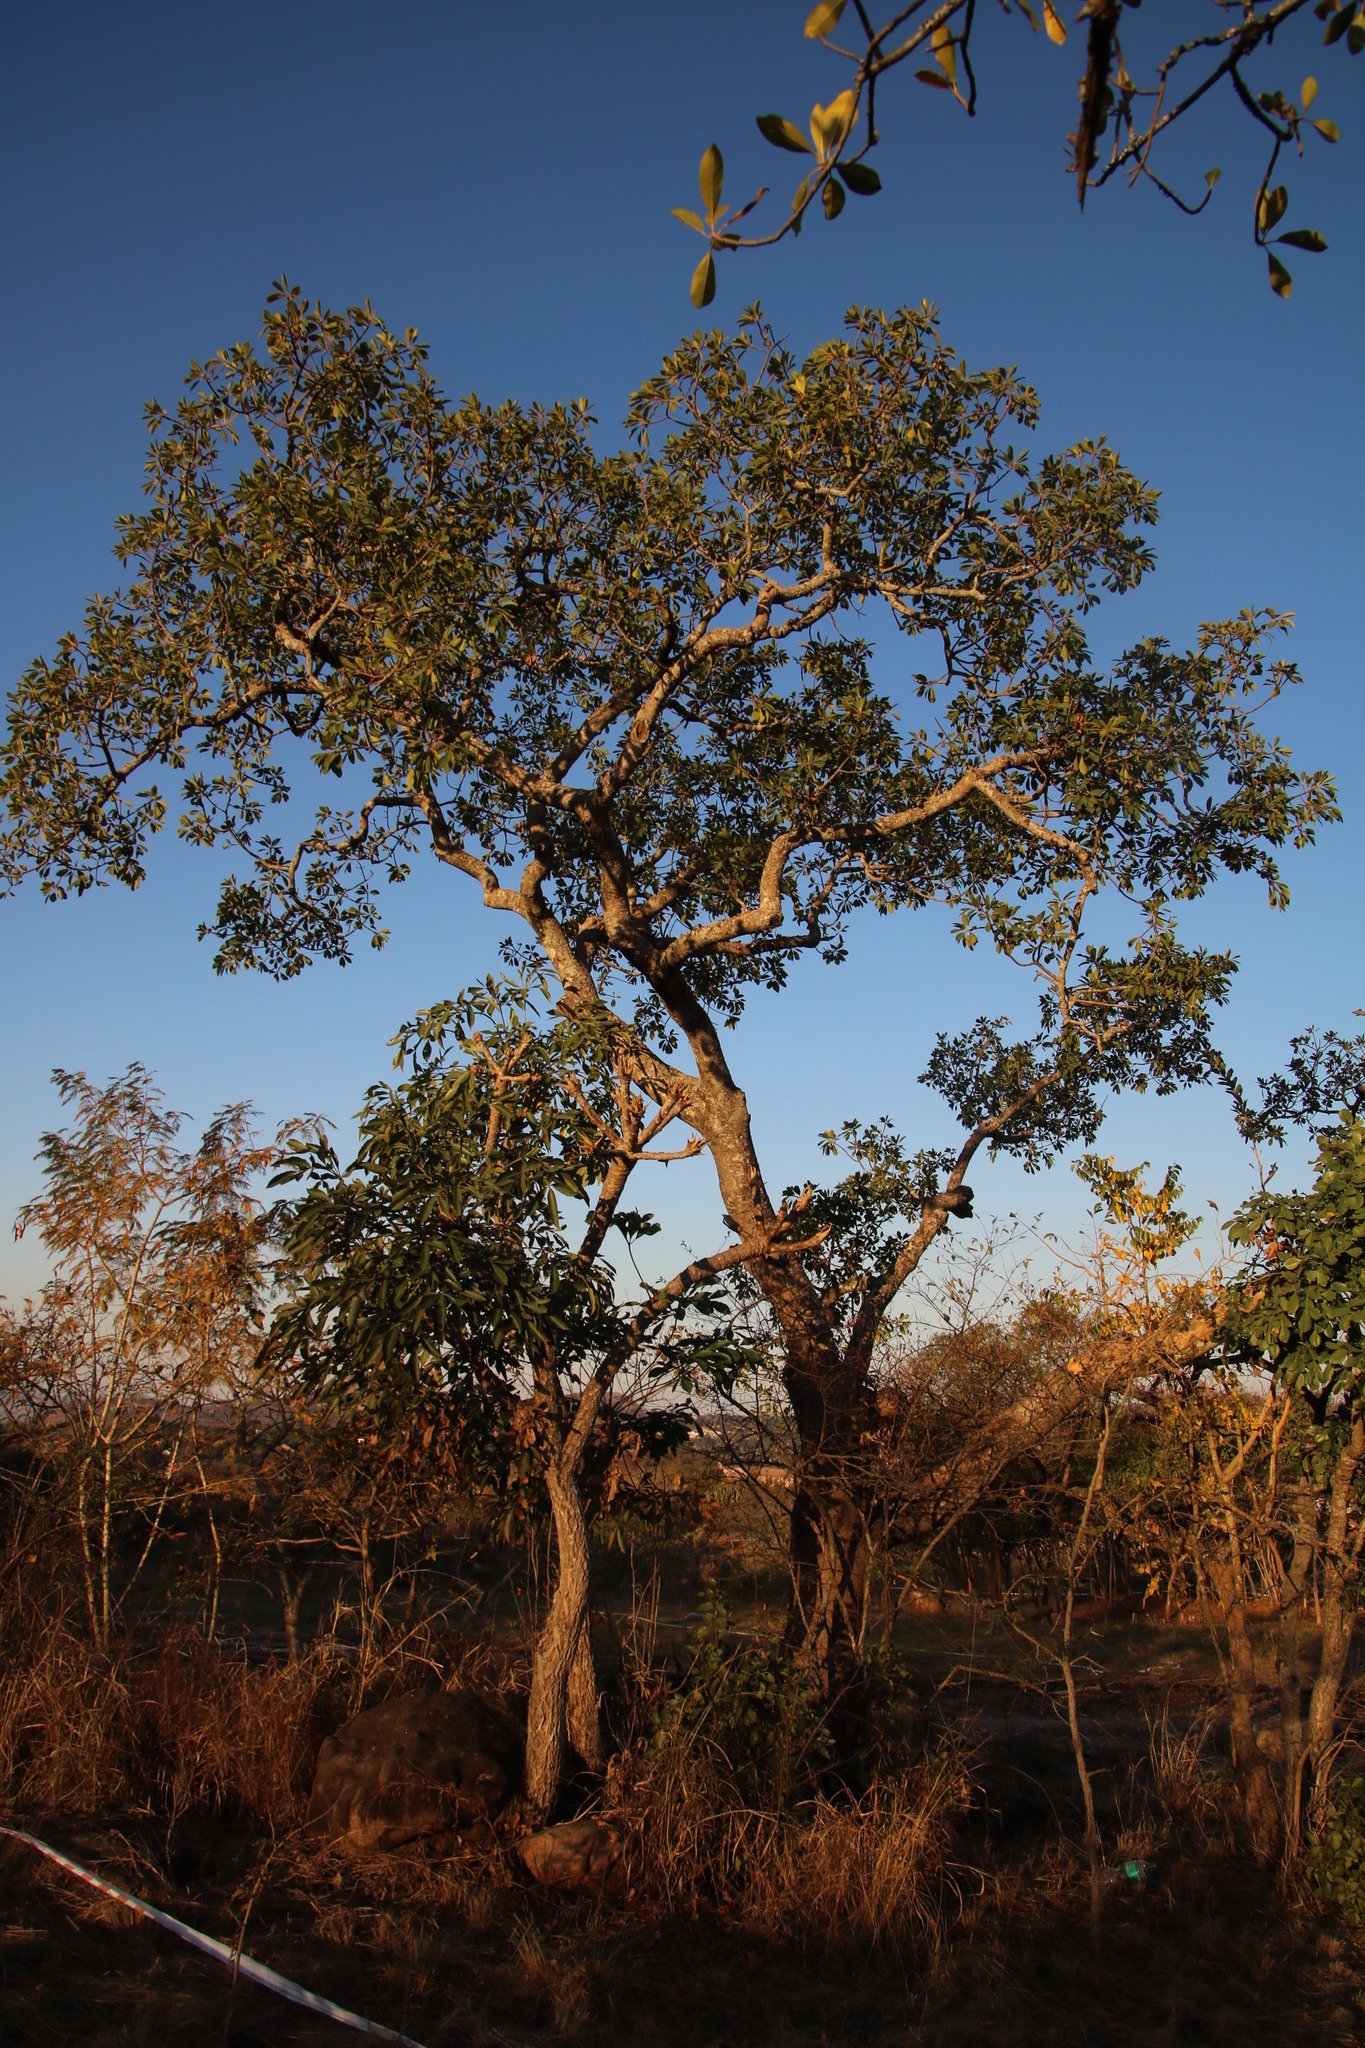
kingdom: Plantae
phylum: Tracheophyta
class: Magnoliopsida
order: Rosales
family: Moraceae
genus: Ficus
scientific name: Ficus petersii
